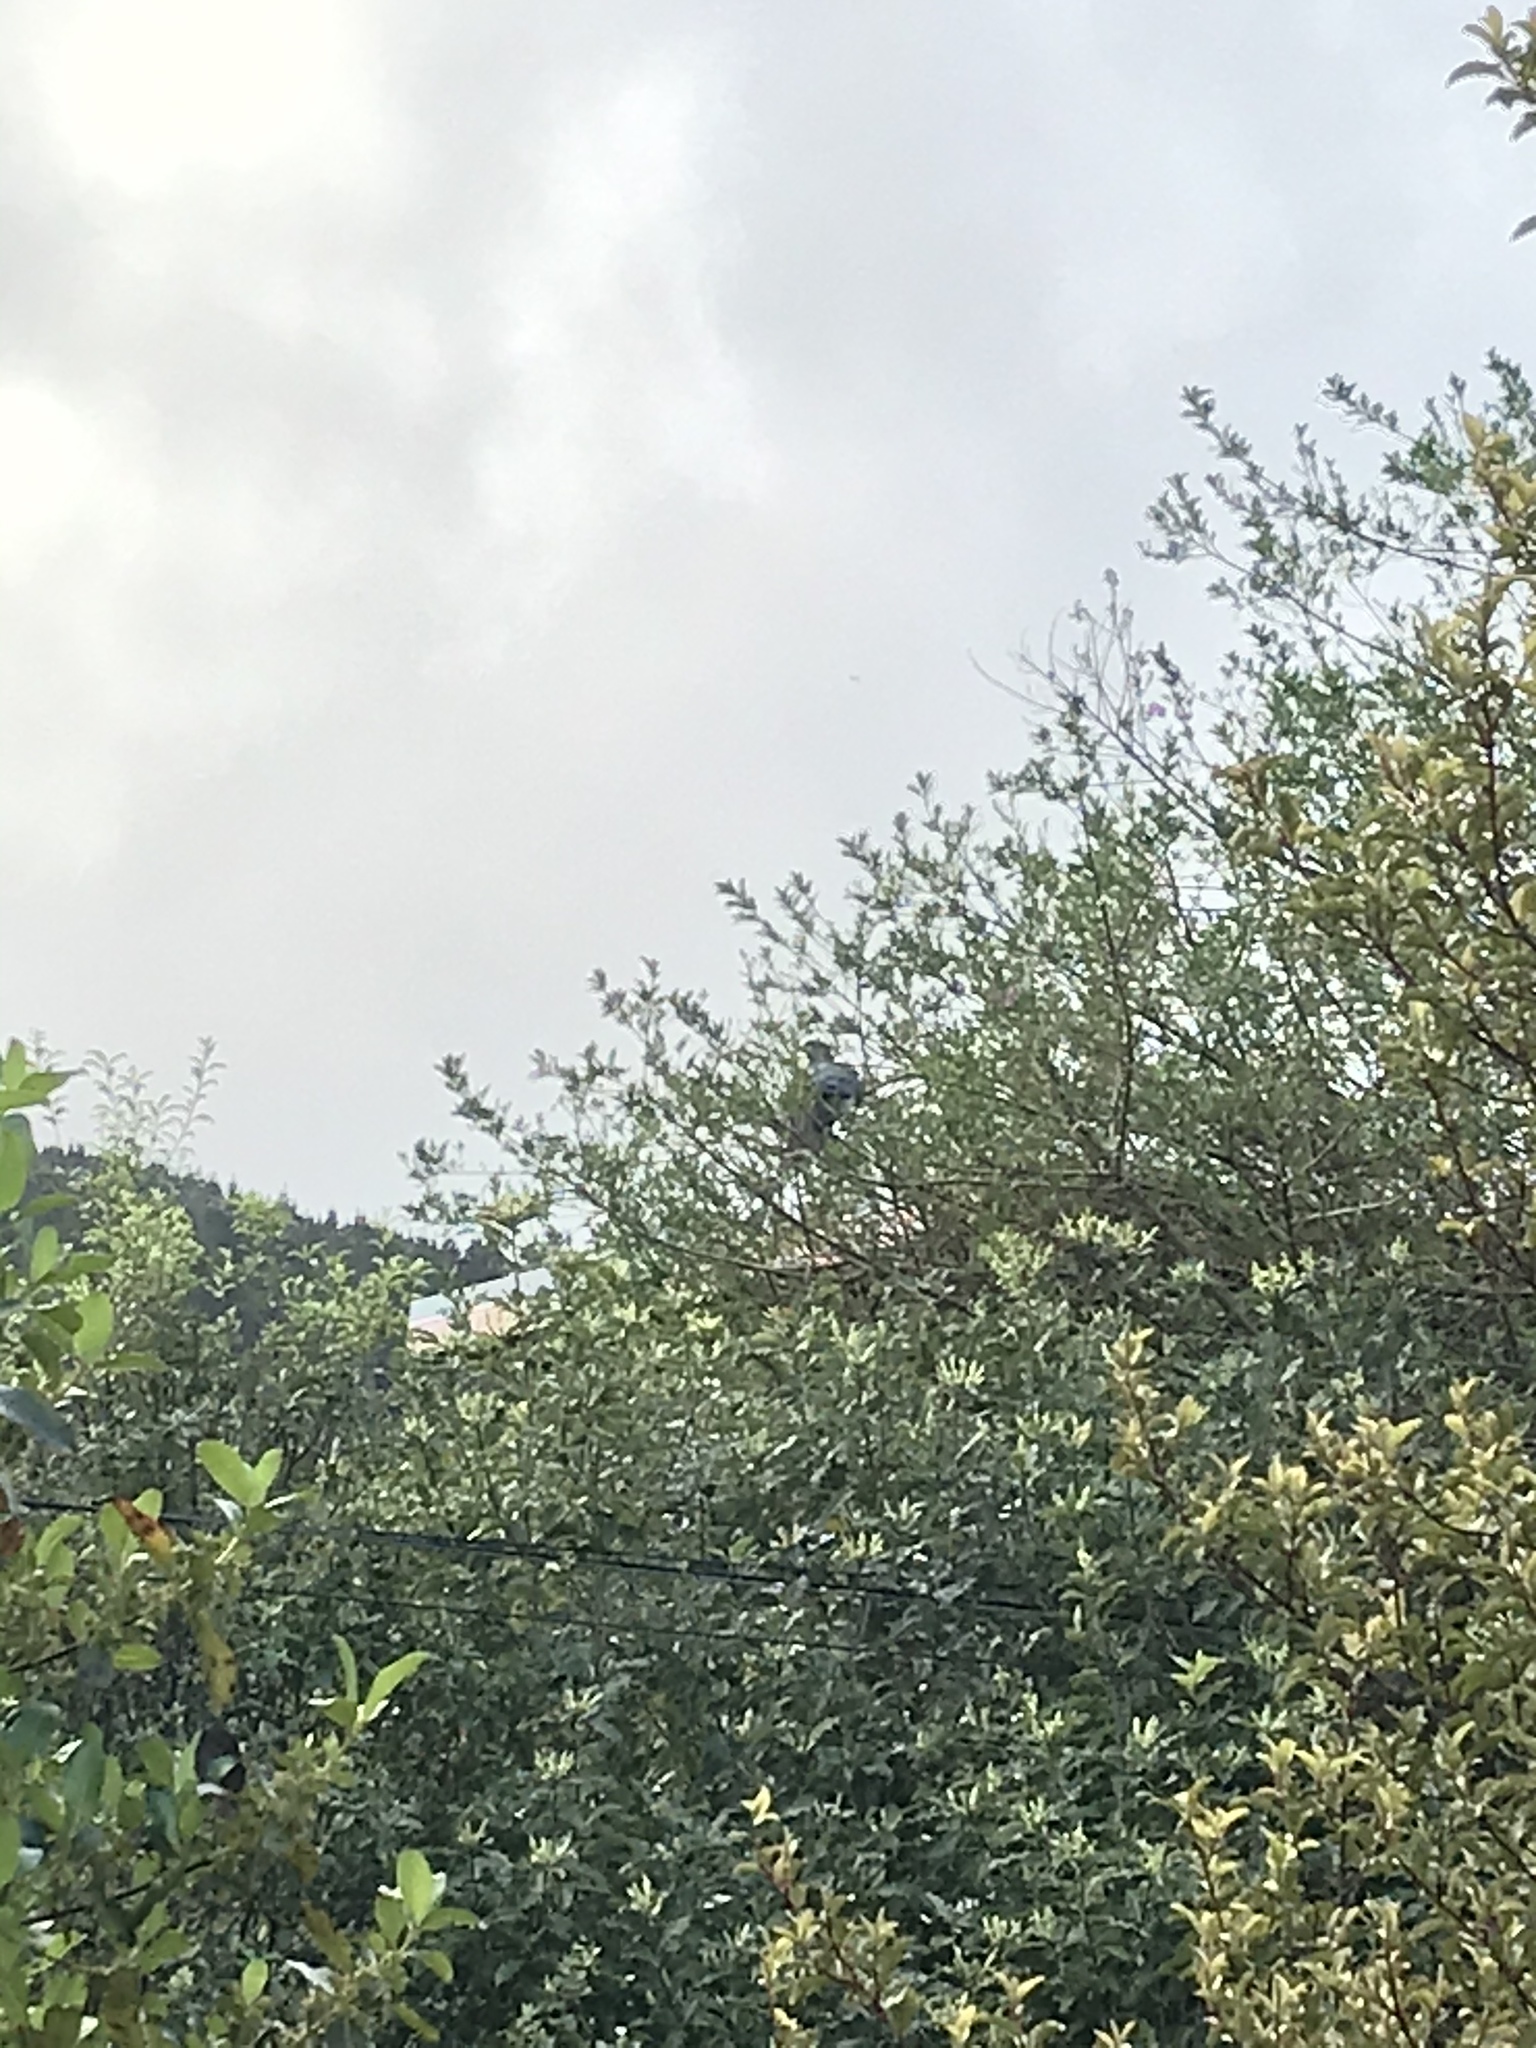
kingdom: Animalia
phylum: Chordata
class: Aves
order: Columbiformes
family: Columbidae
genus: Hemiphaga
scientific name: Hemiphaga novaeseelandiae
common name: New zealand pigeon
